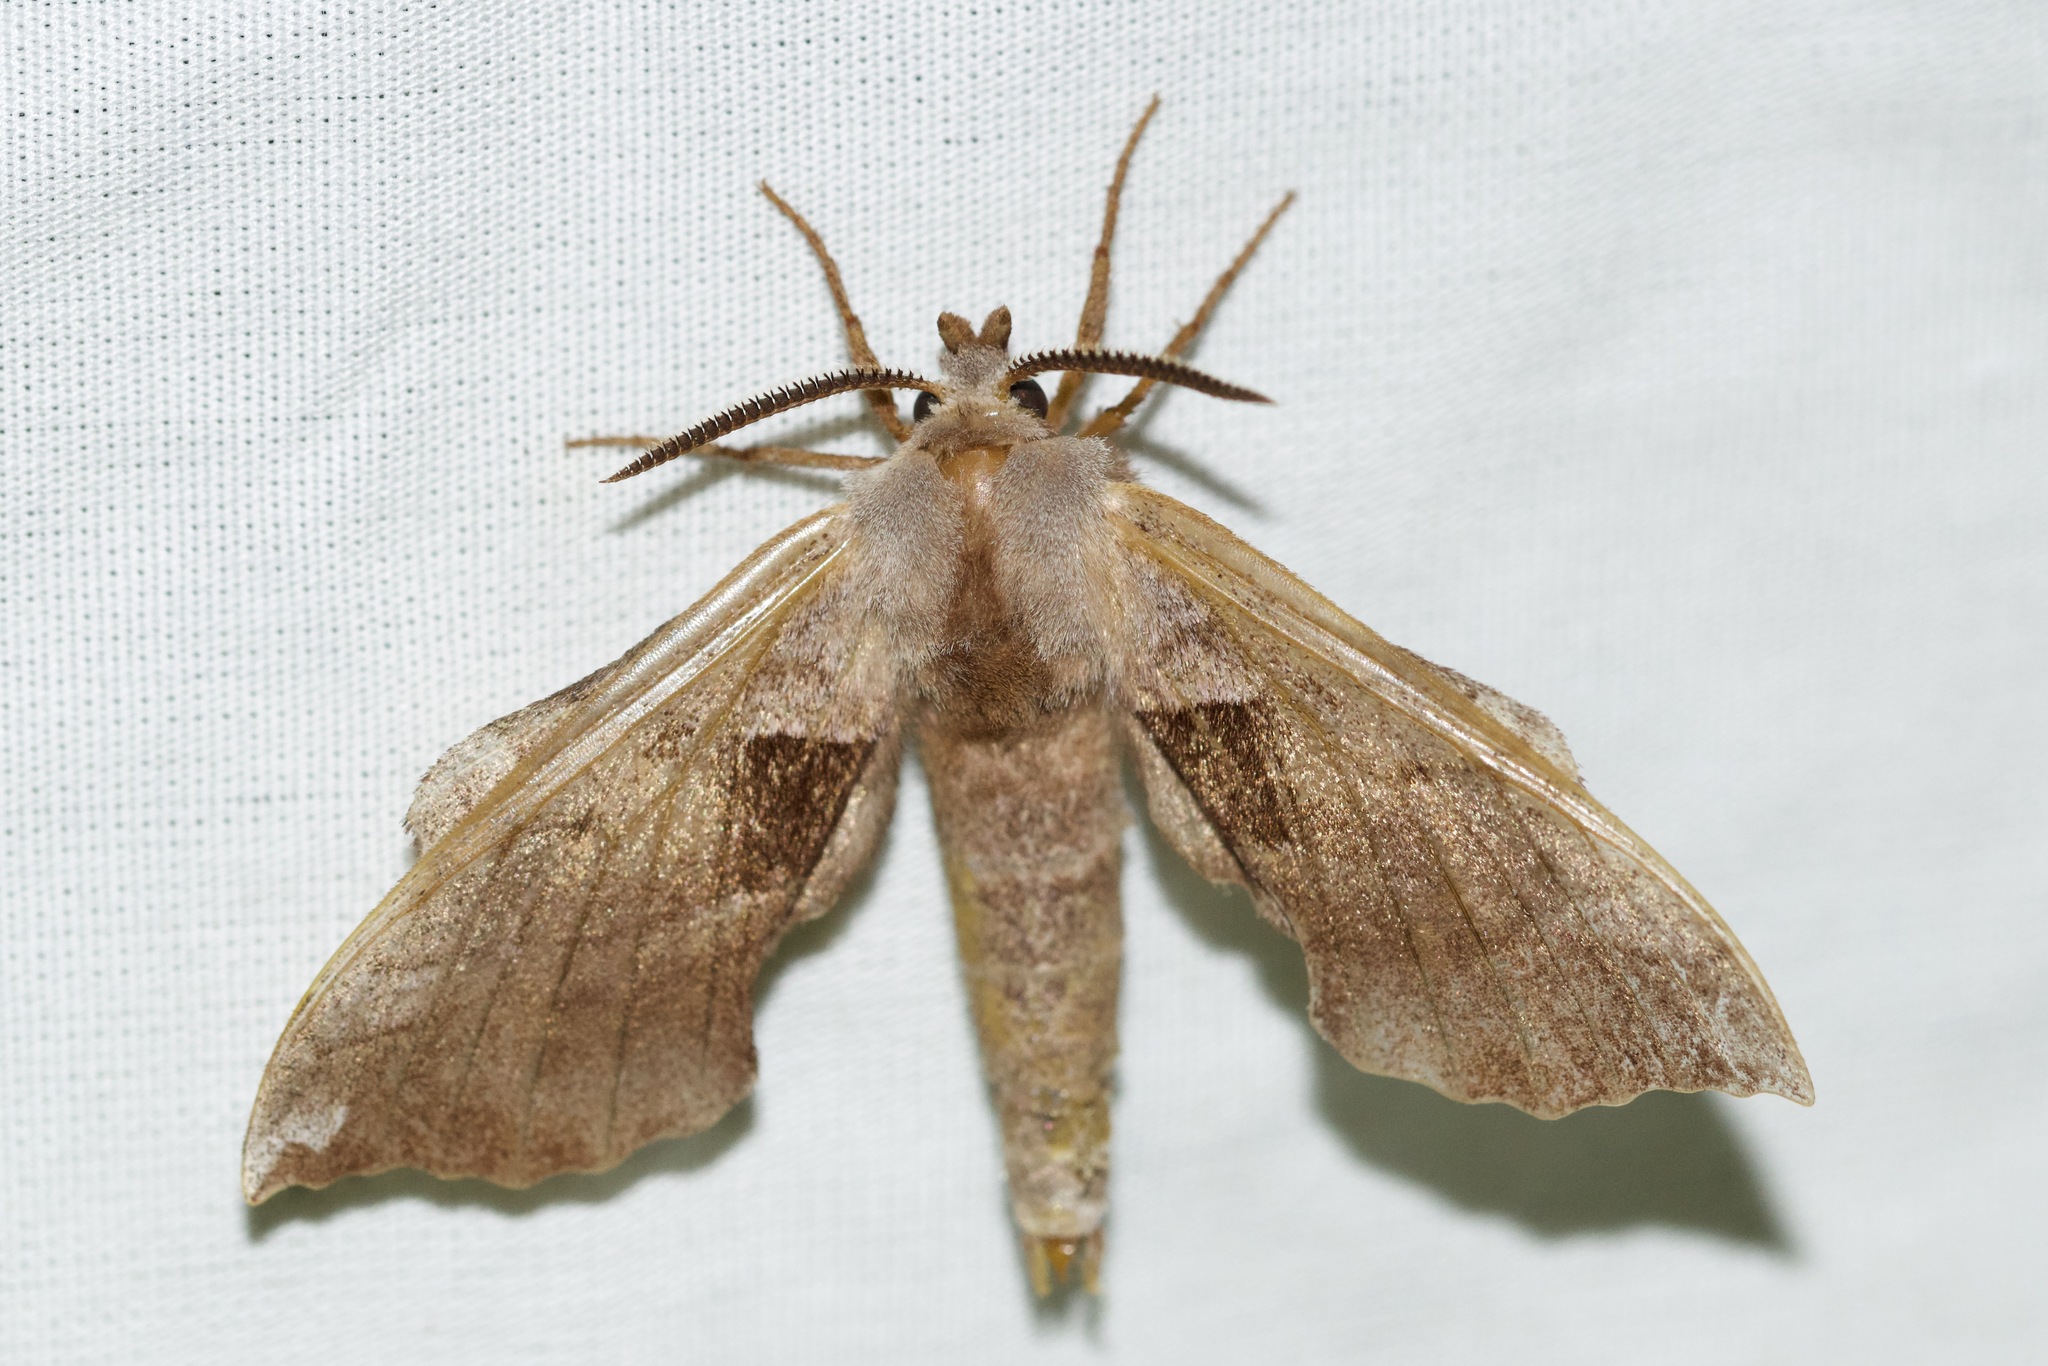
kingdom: Animalia
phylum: Arthropoda
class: Insecta
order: Lepidoptera
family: Sphingidae
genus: Amorpha
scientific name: Amorpha juglandis
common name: Walnut sphinx
